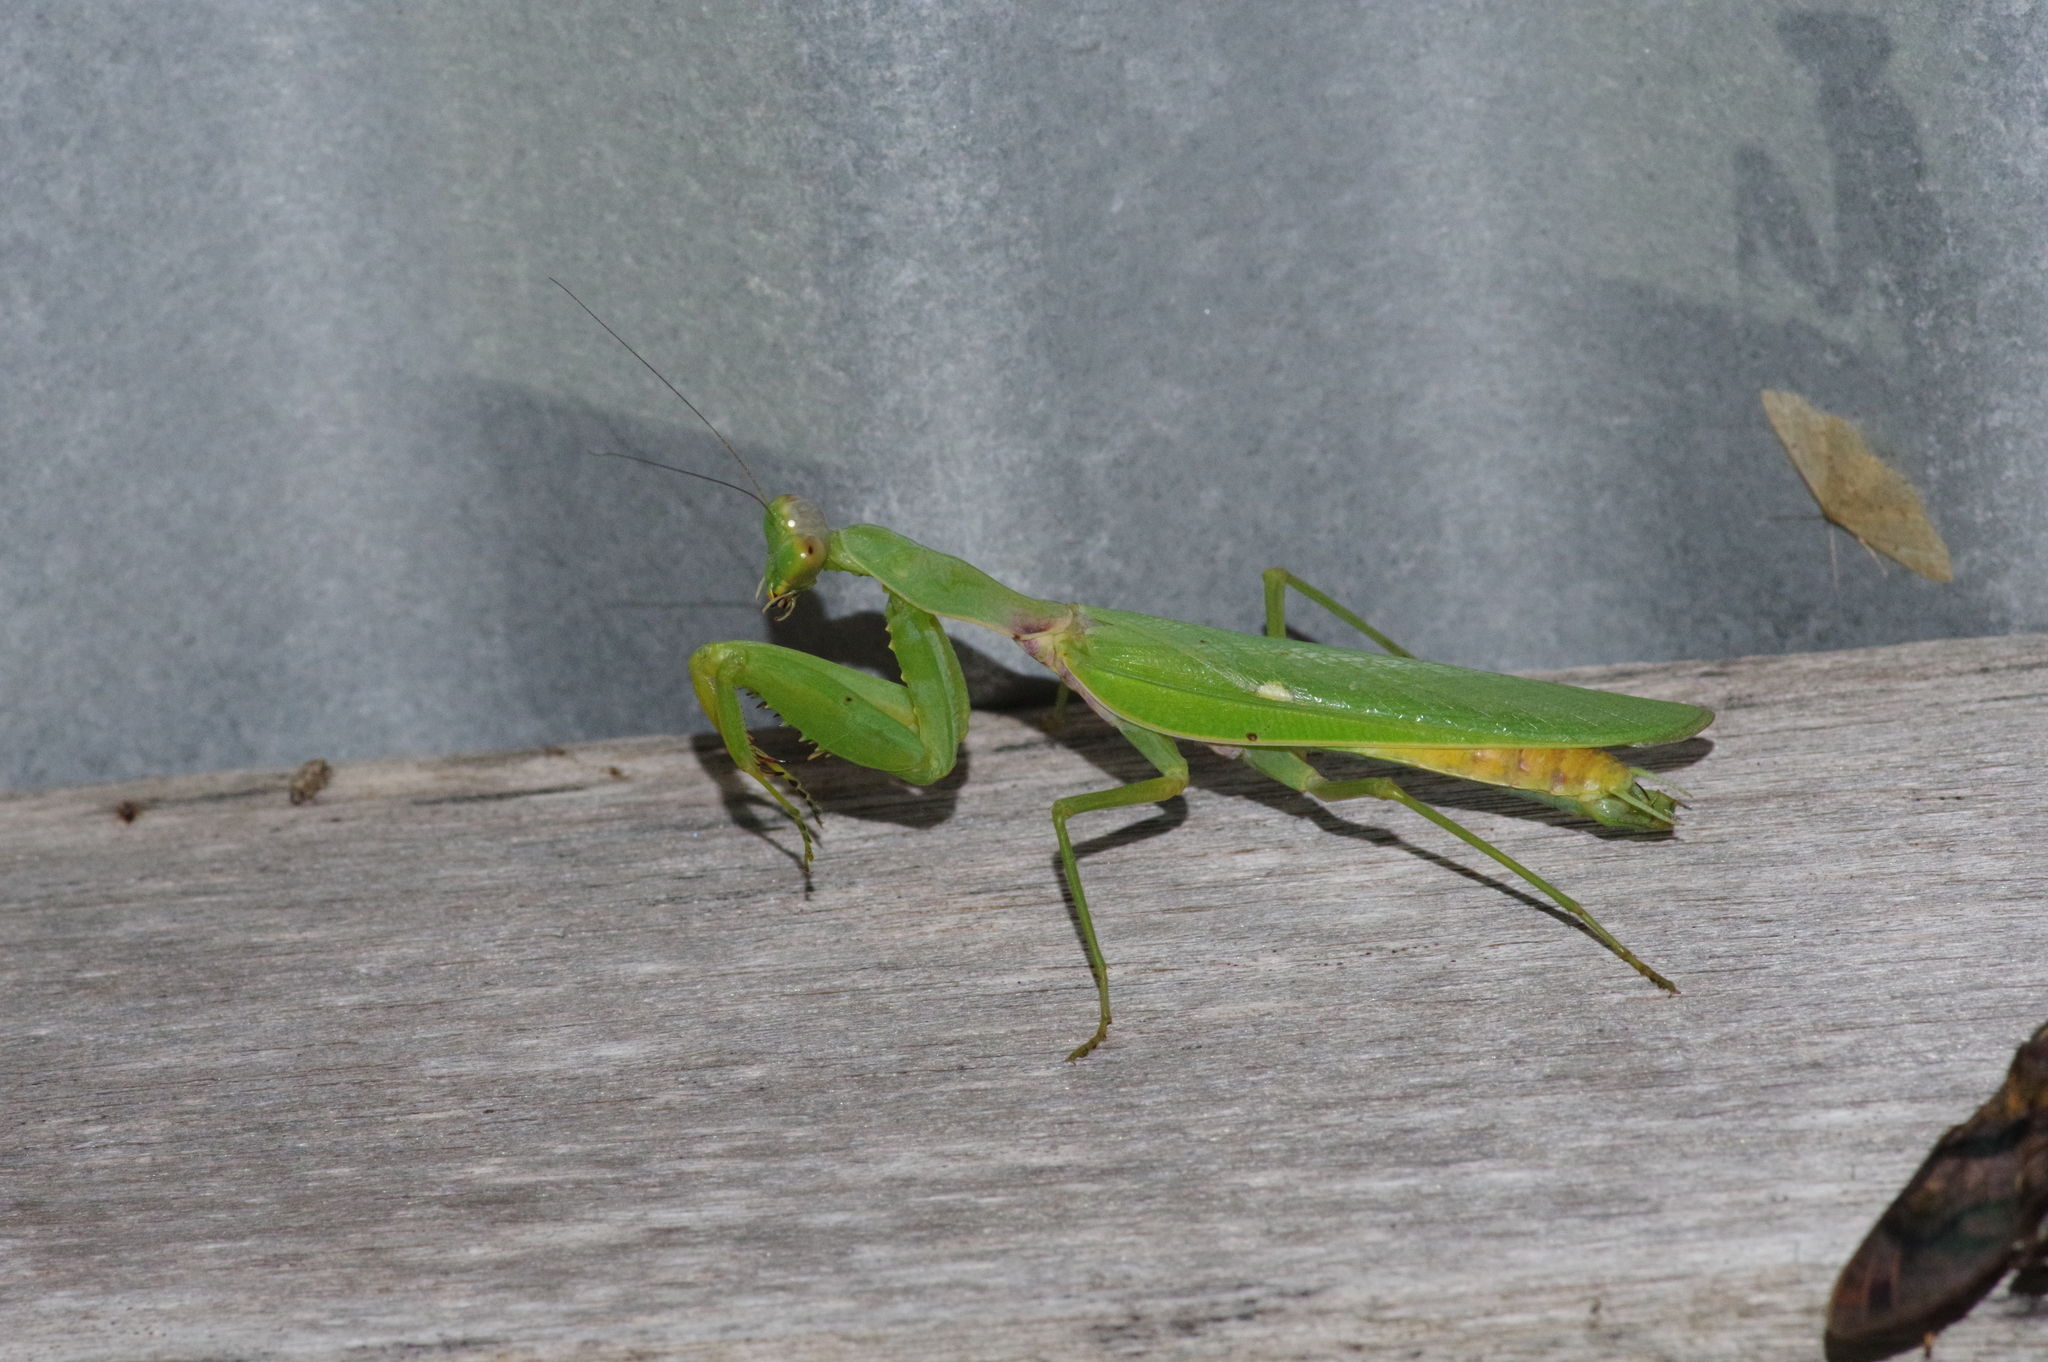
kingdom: Animalia
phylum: Arthropoda
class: Insecta
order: Mantodea
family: Mantidae
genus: Hierodula
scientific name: Hierodula patellifera
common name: Asian mantis
